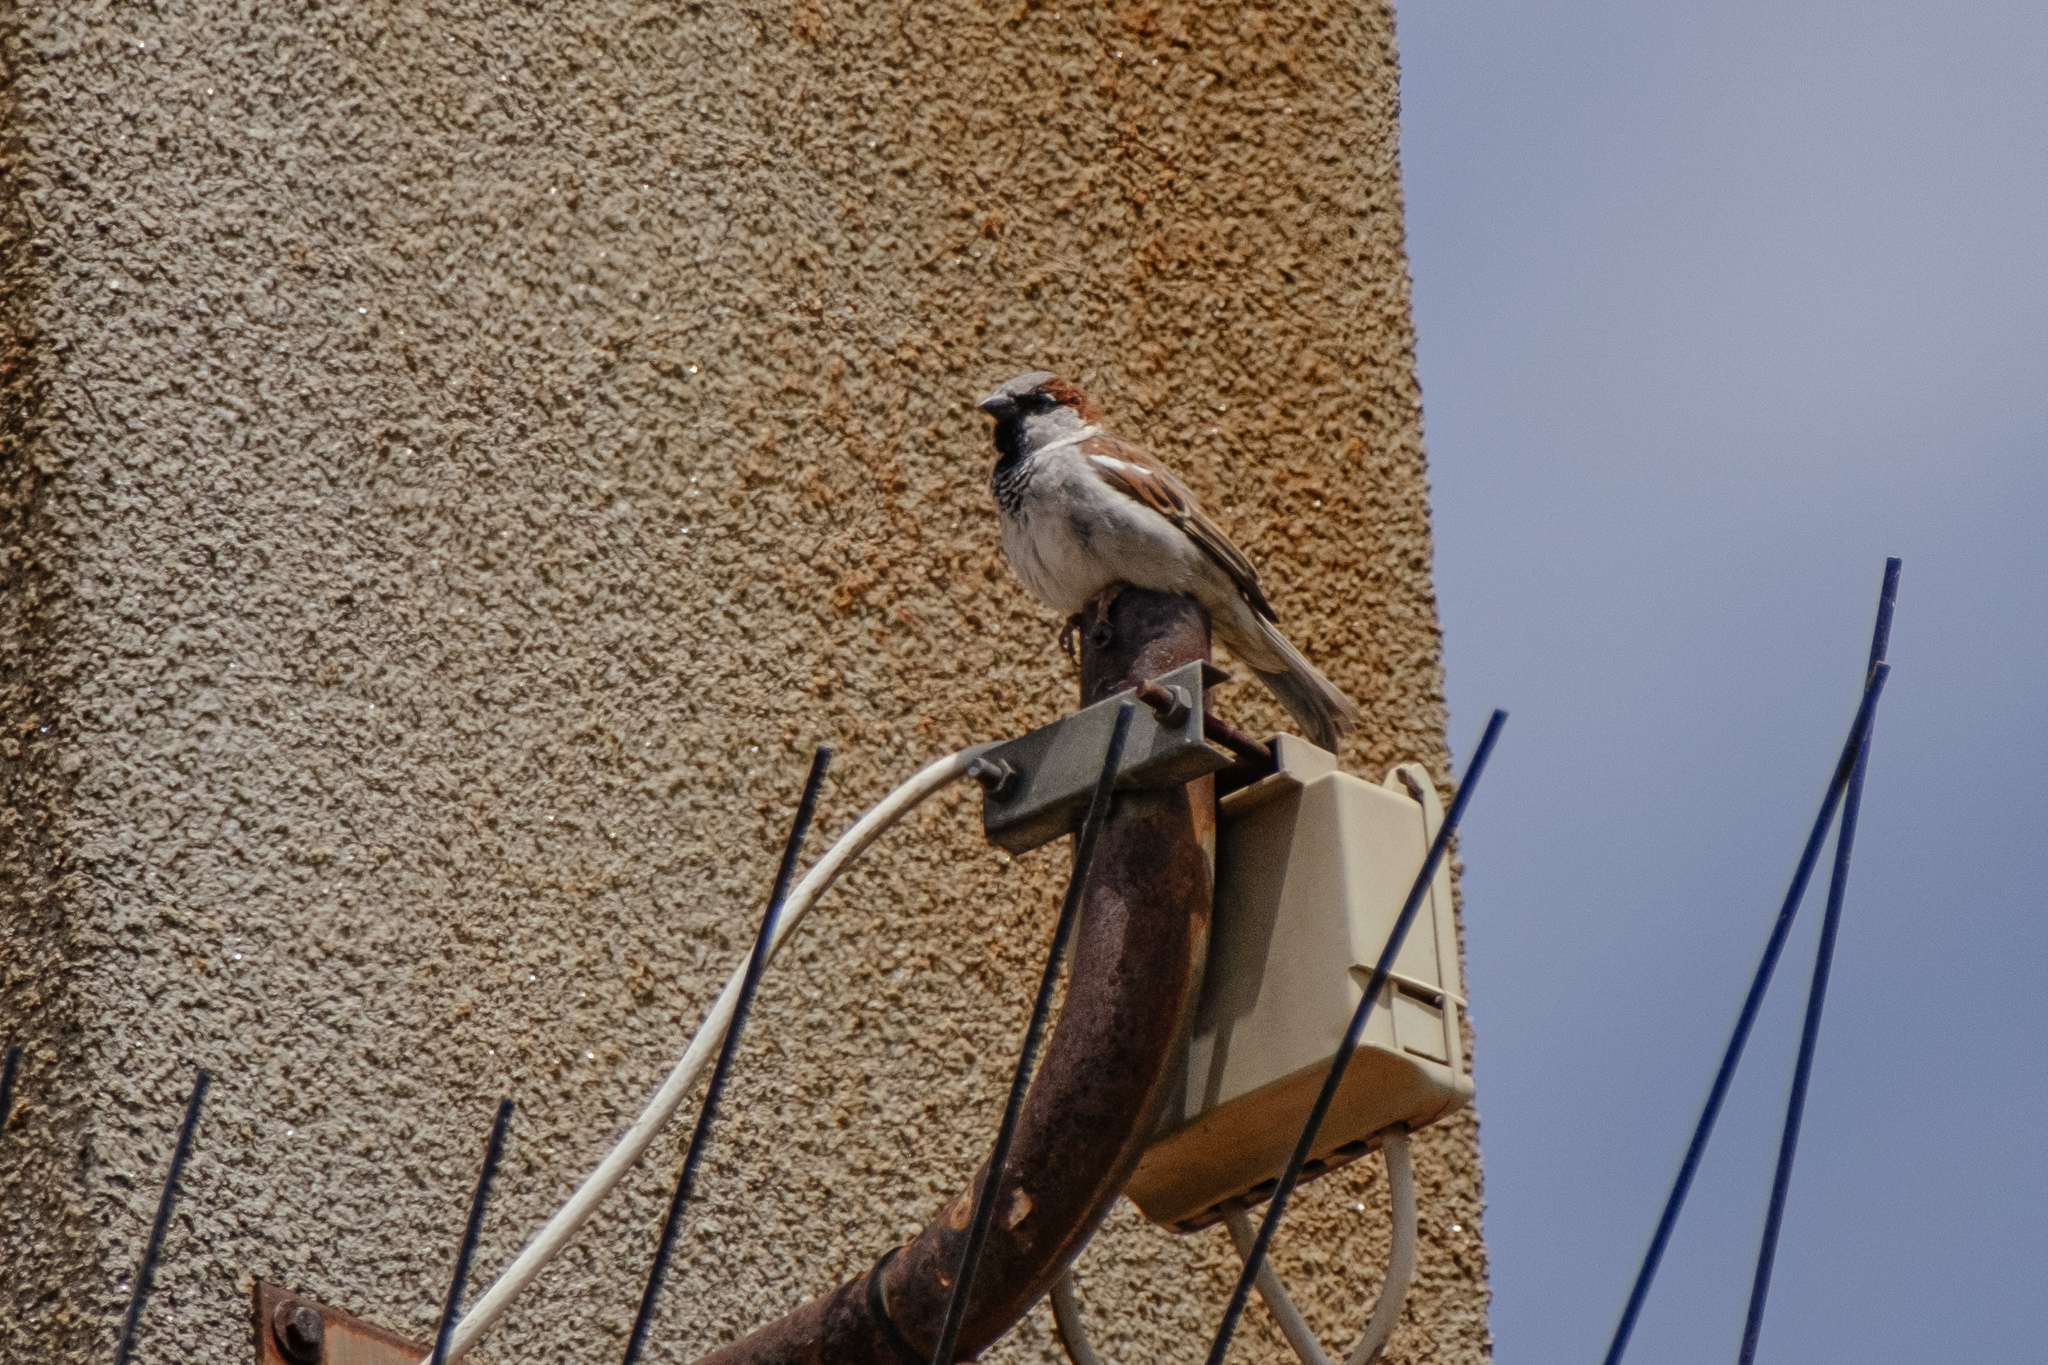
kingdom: Animalia
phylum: Chordata
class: Aves
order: Passeriformes
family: Passeridae
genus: Passer
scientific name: Passer domesticus
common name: House sparrow
